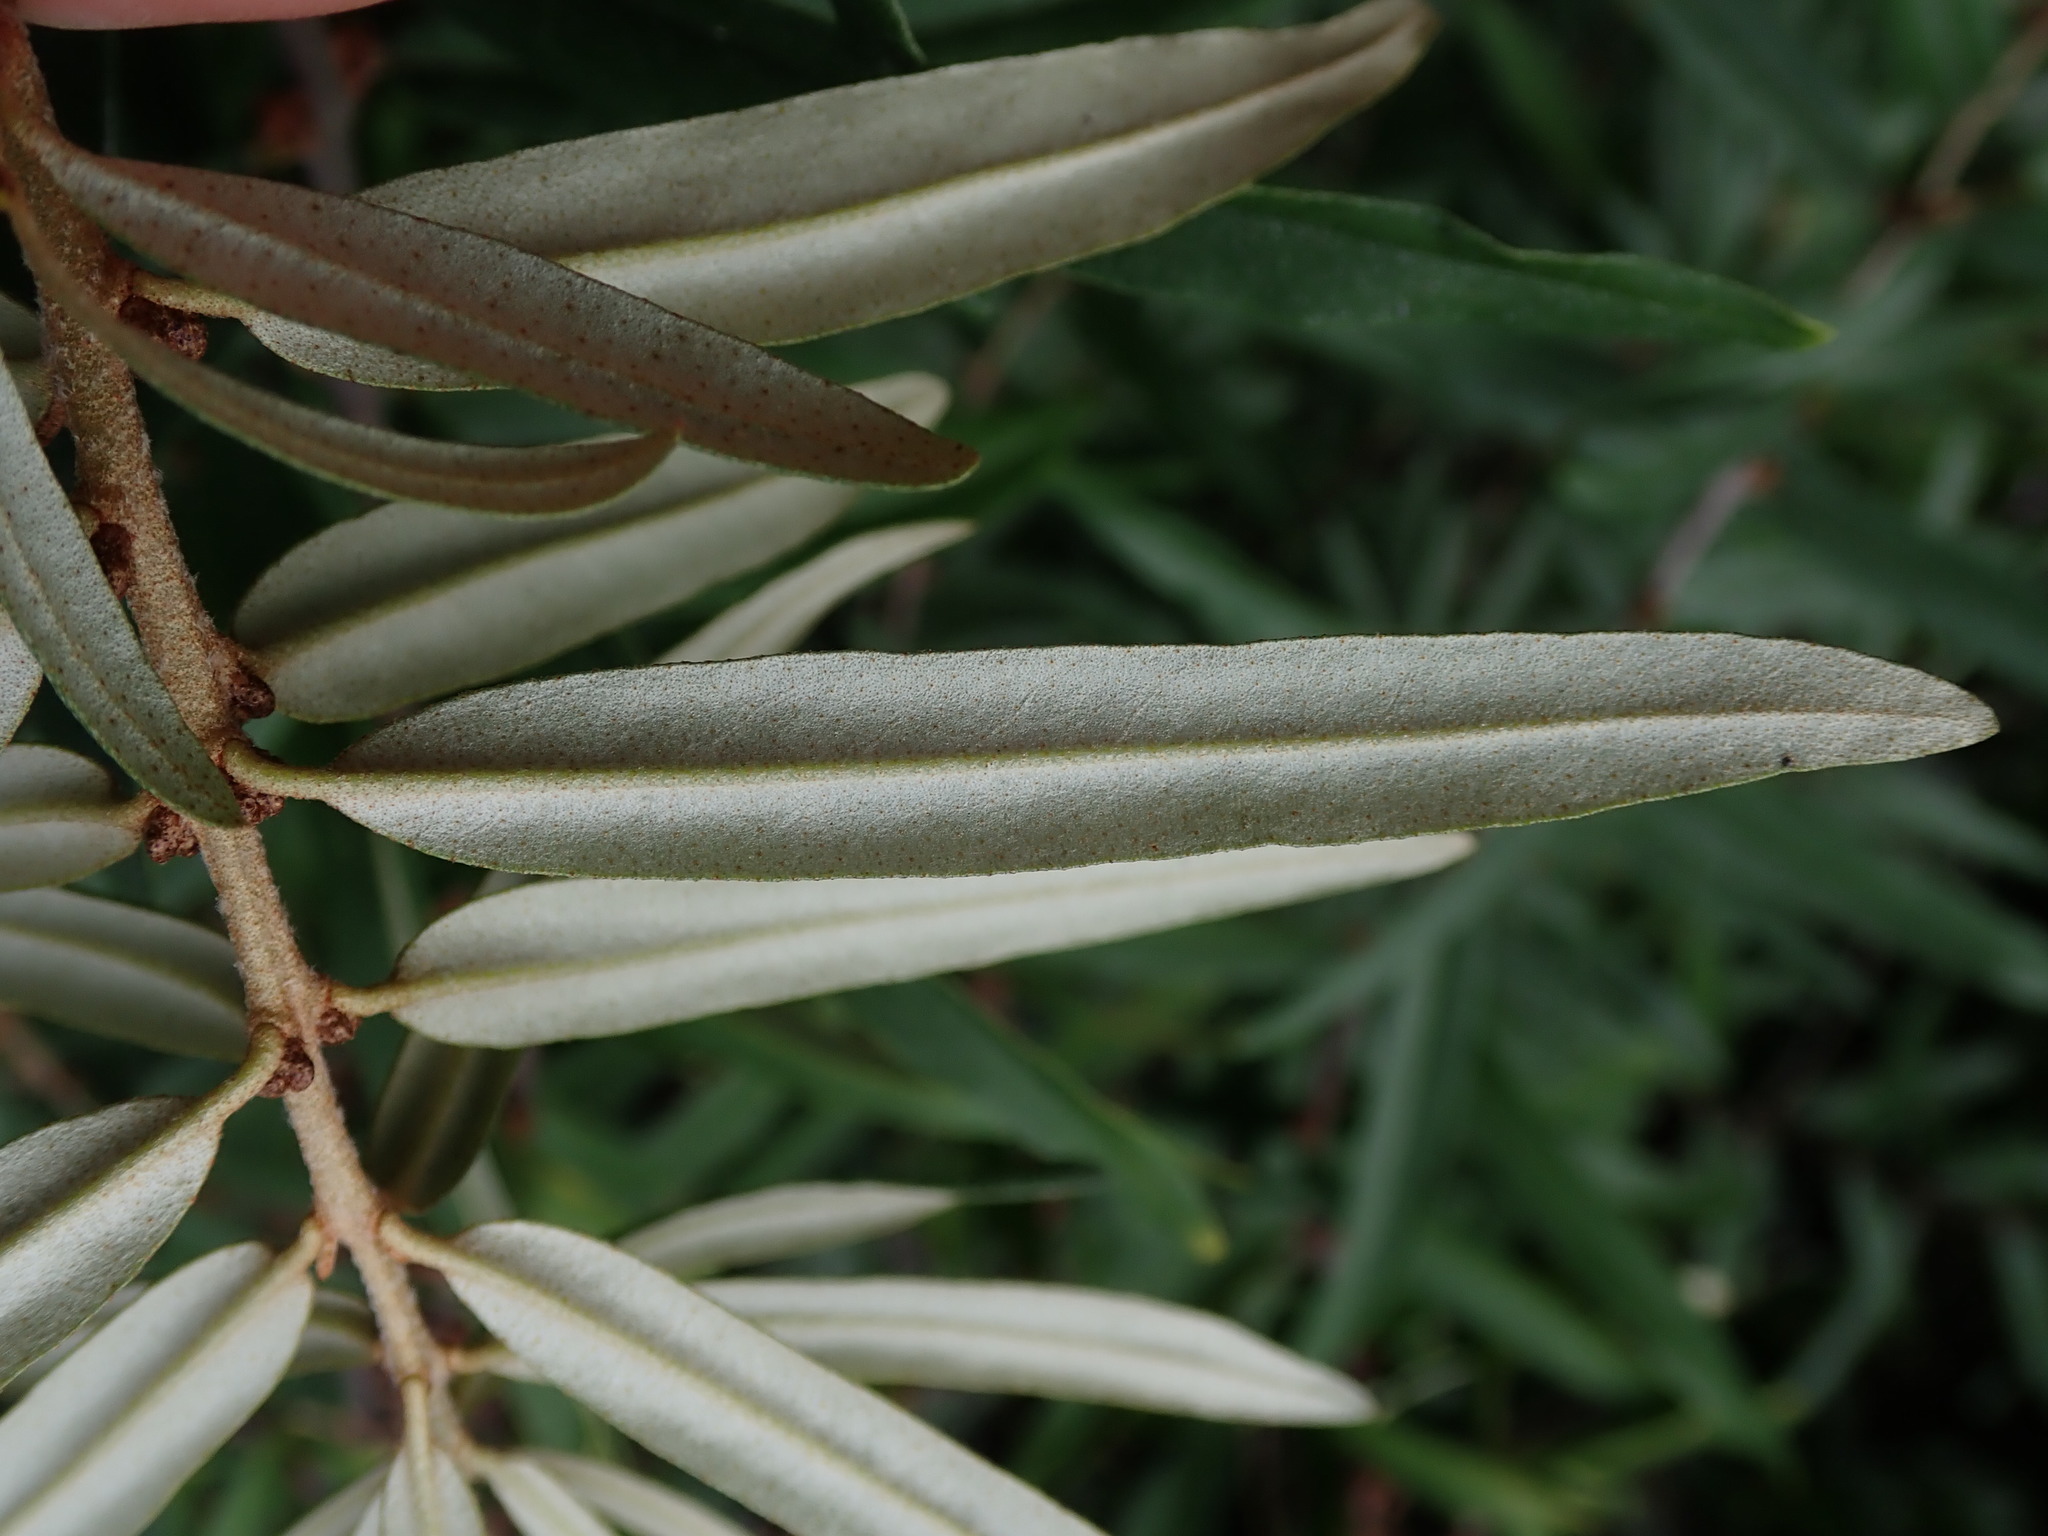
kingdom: Plantae
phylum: Tracheophyta
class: Magnoliopsida
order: Rosales
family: Elaeagnaceae
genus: Hippophae
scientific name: Hippophae rhamnoides
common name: Sea-buckthorn
